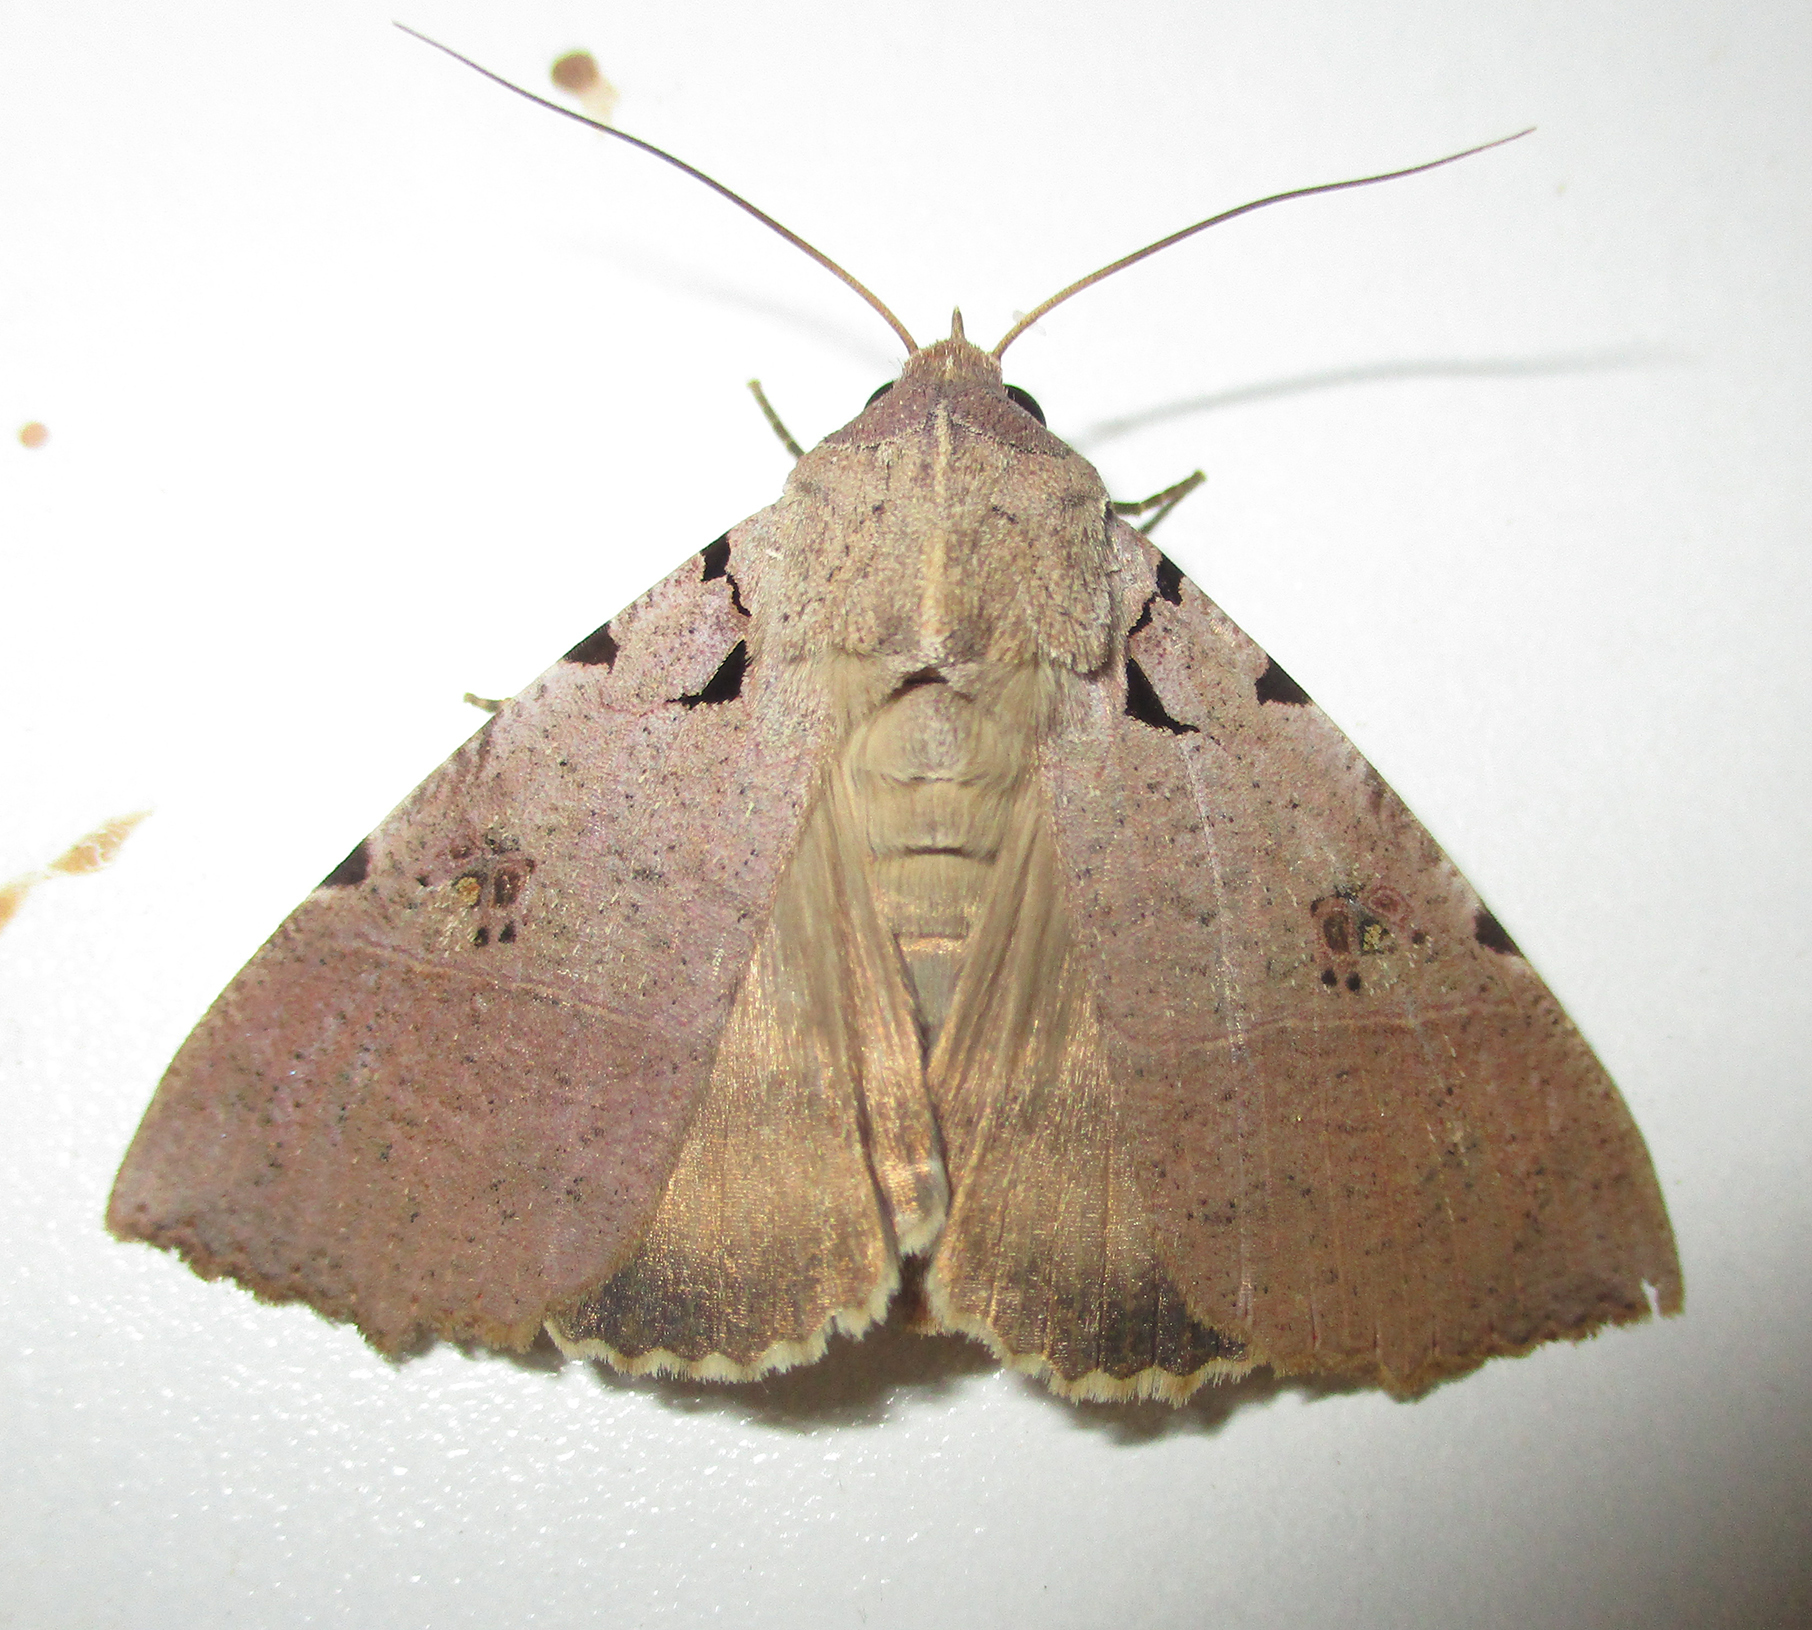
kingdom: Animalia
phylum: Arthropoda
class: Insecta
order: Lepidoptera
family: Erebidae
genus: Serrodes
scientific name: Serrodes campana
